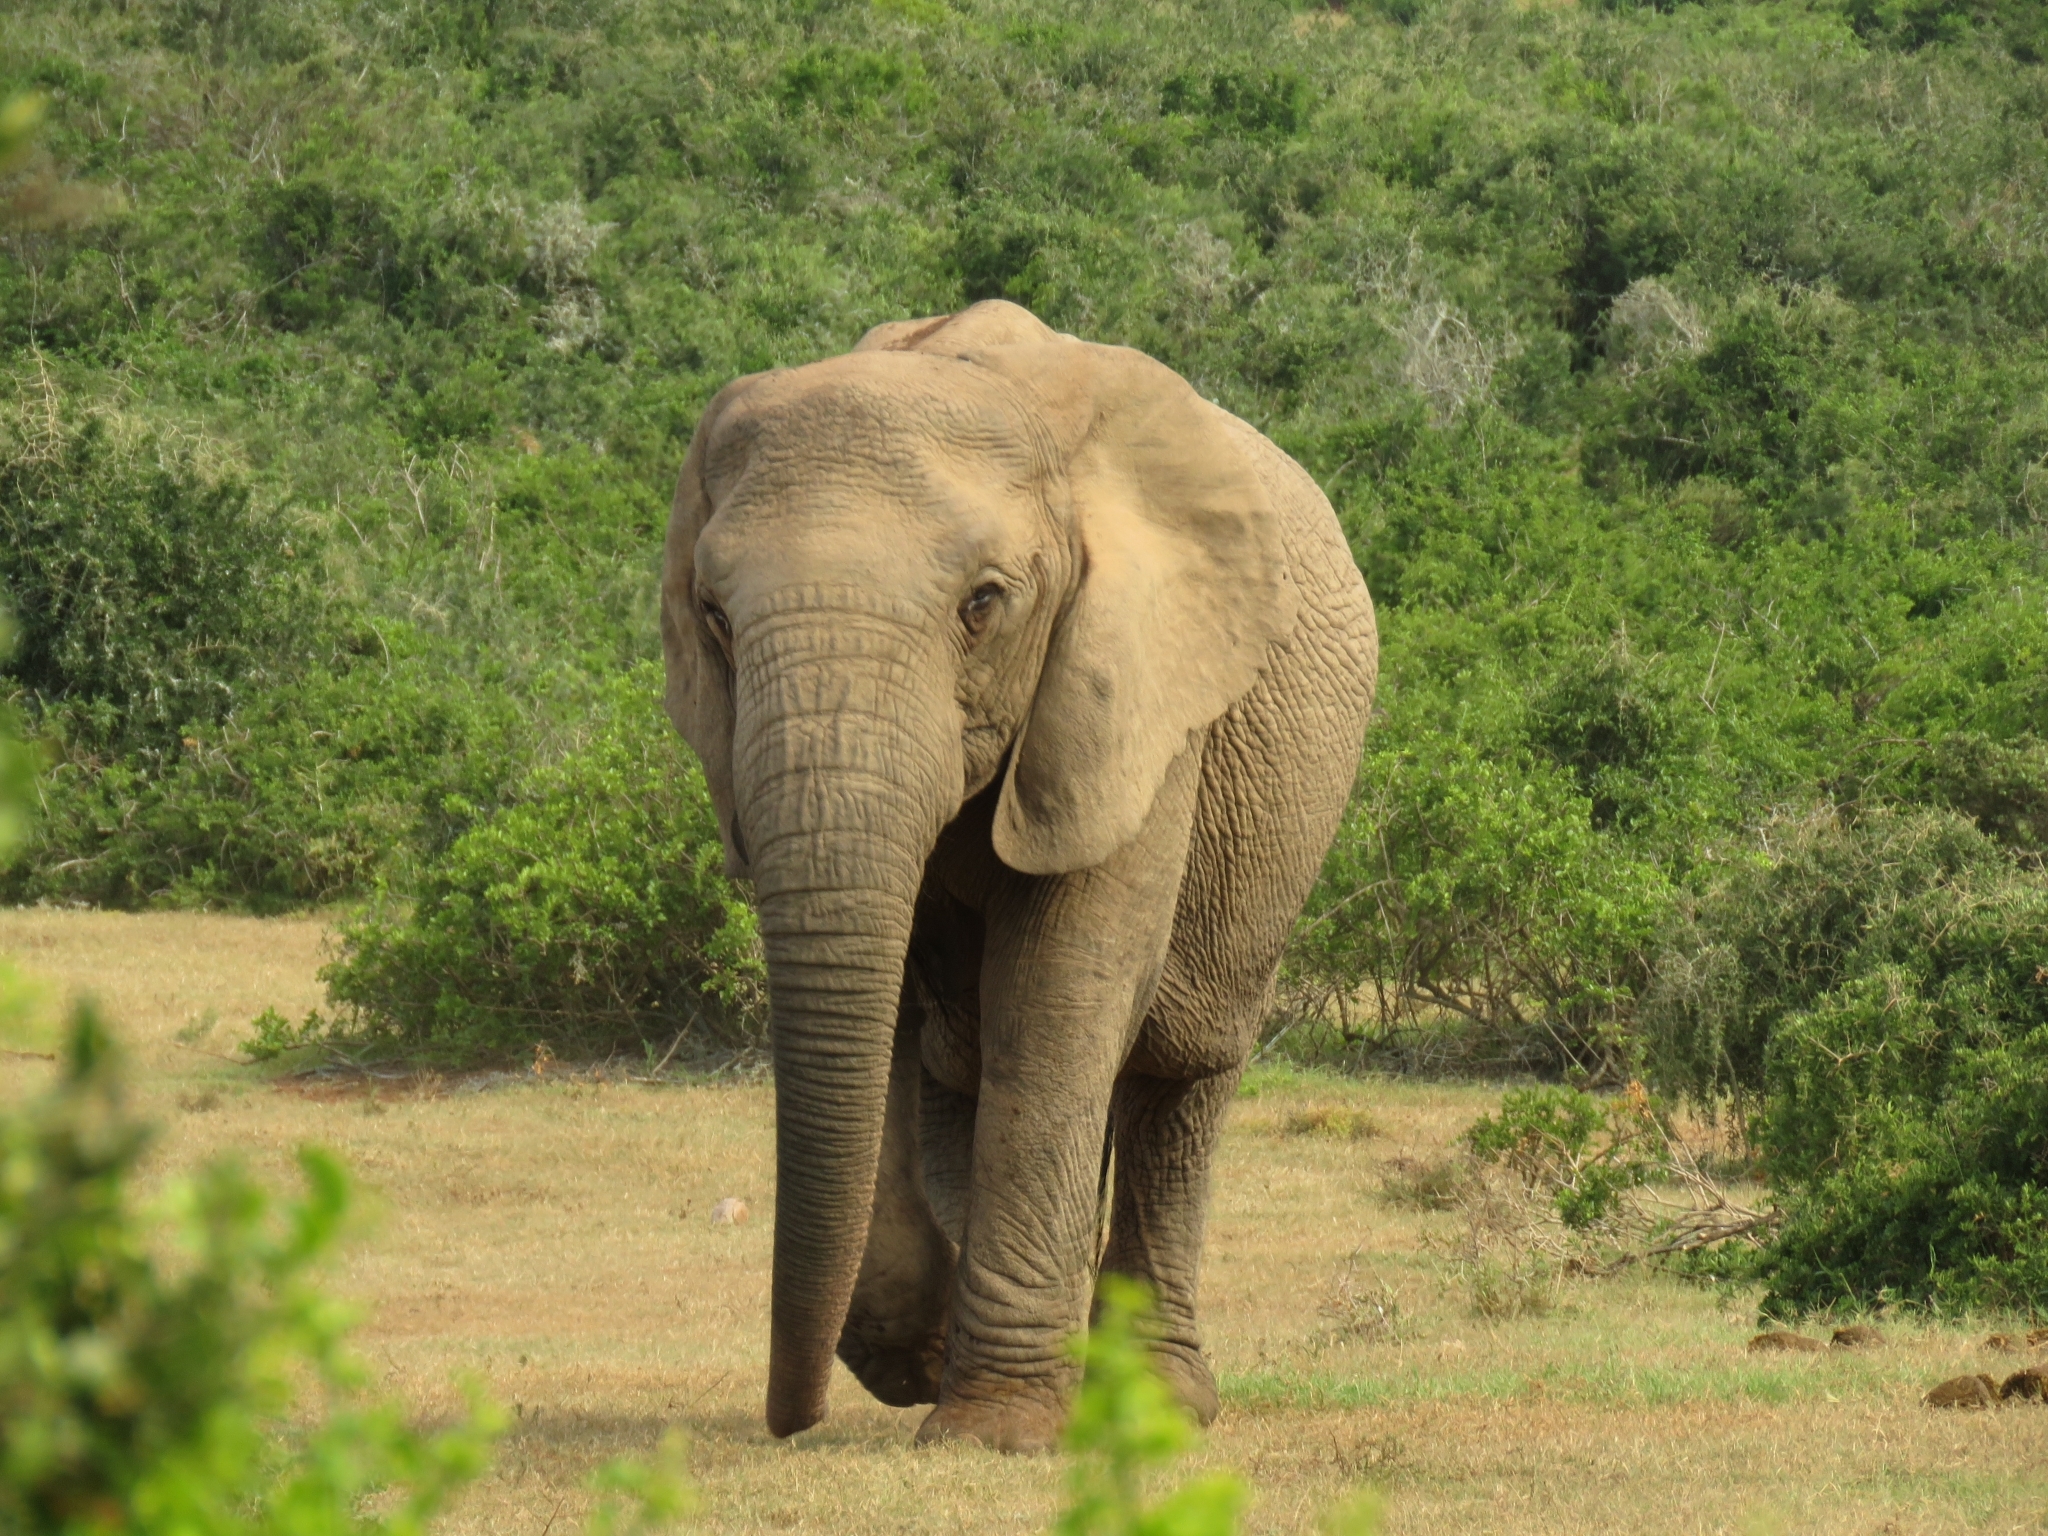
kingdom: Animalia
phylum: Chordata
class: Mammalia
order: Proboscidea
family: Elephantidae
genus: Loxodonta
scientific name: Loxodonta africana
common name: African elephant
